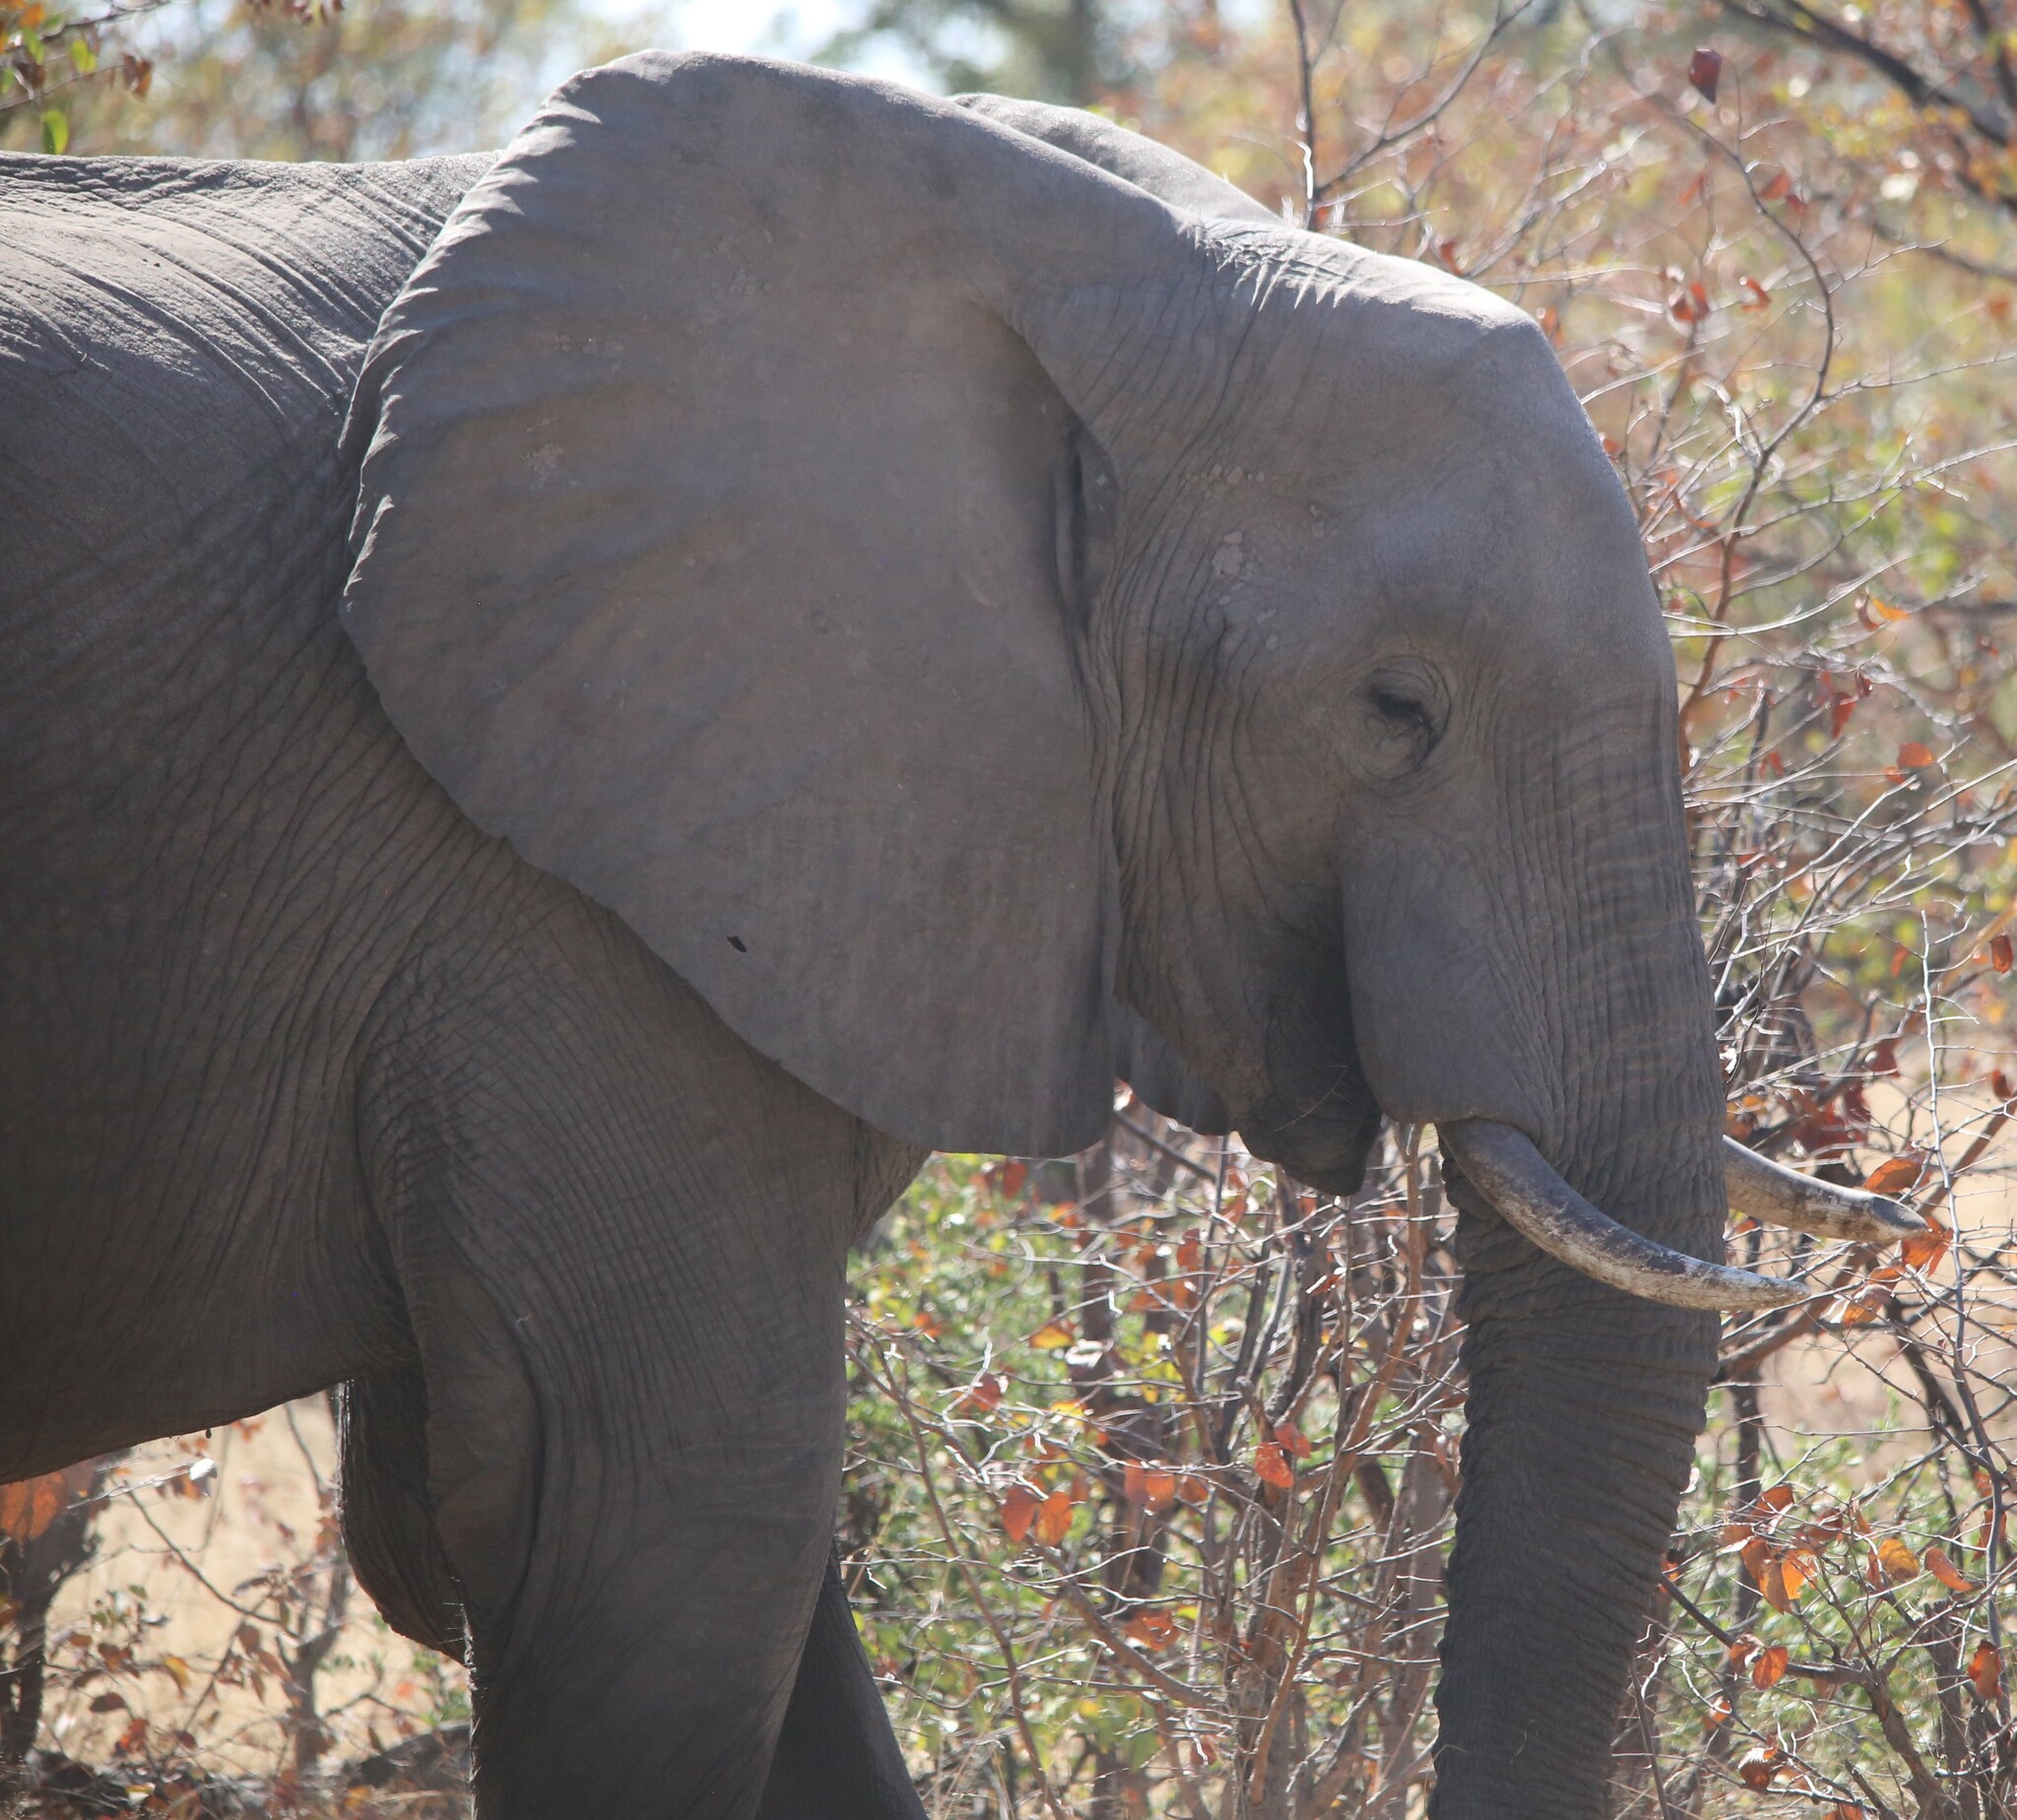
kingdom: Animalia
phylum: Chordata
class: Mammalia
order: Proboscidea
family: Elephantidae
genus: Loxodonta
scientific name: Loxodonta africana
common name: African elephant
